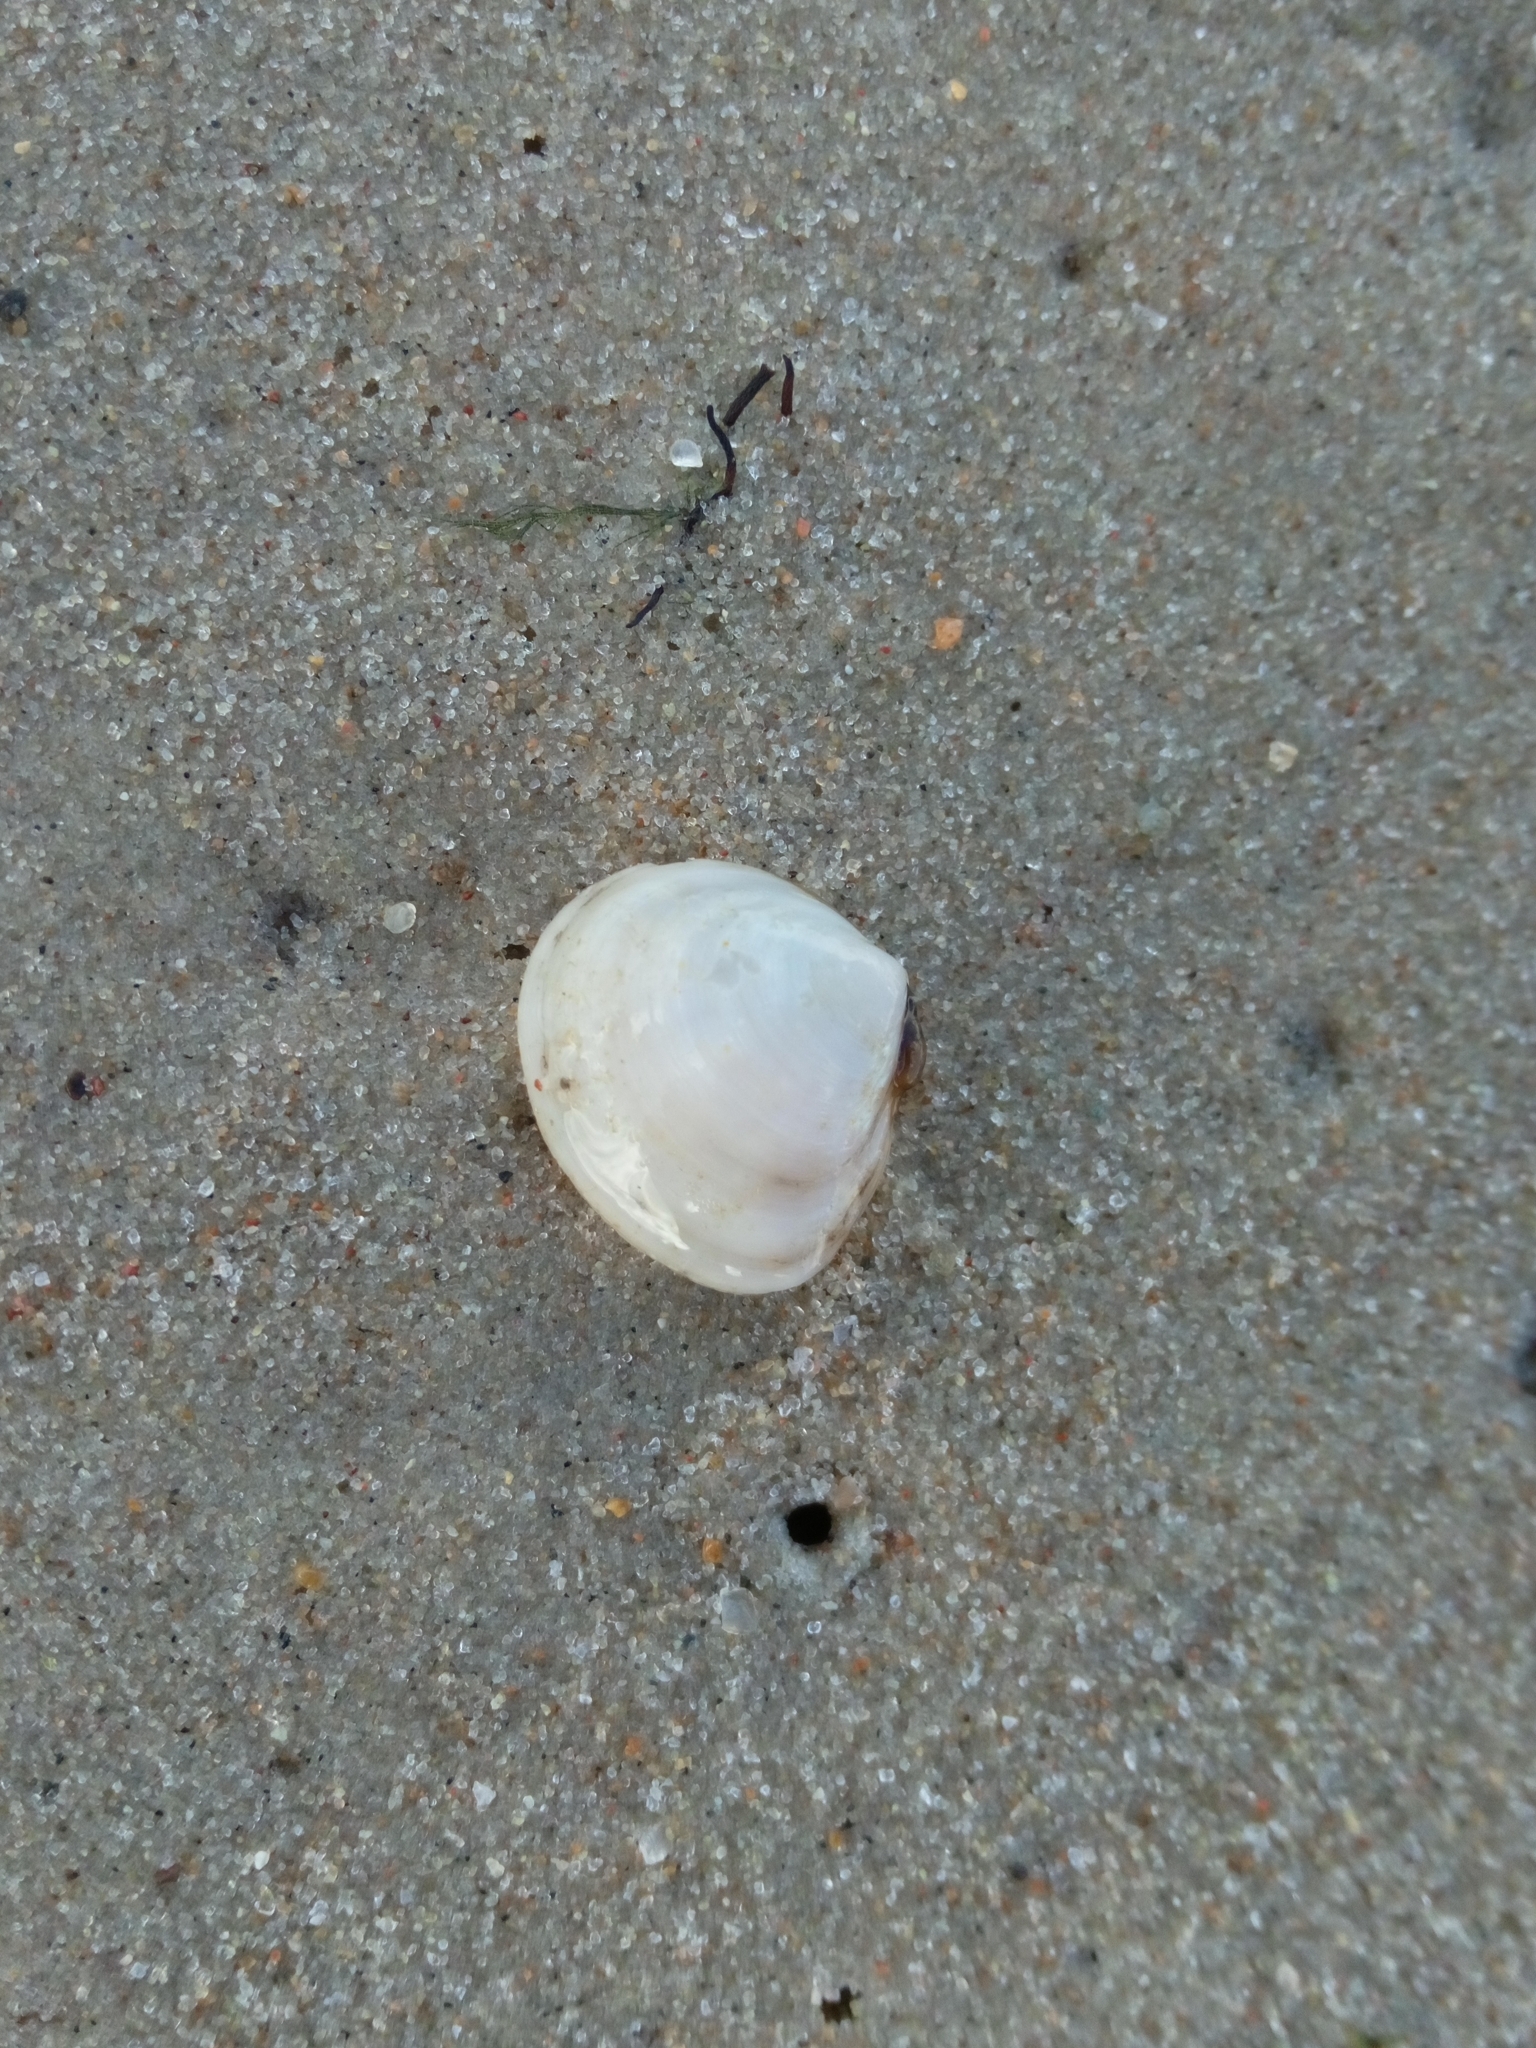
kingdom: Animalia
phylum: Mollusca
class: Bivalvia
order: Cardiida
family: Tellinidae
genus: Macoma
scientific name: Macoma balthica
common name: Baltic tellin
